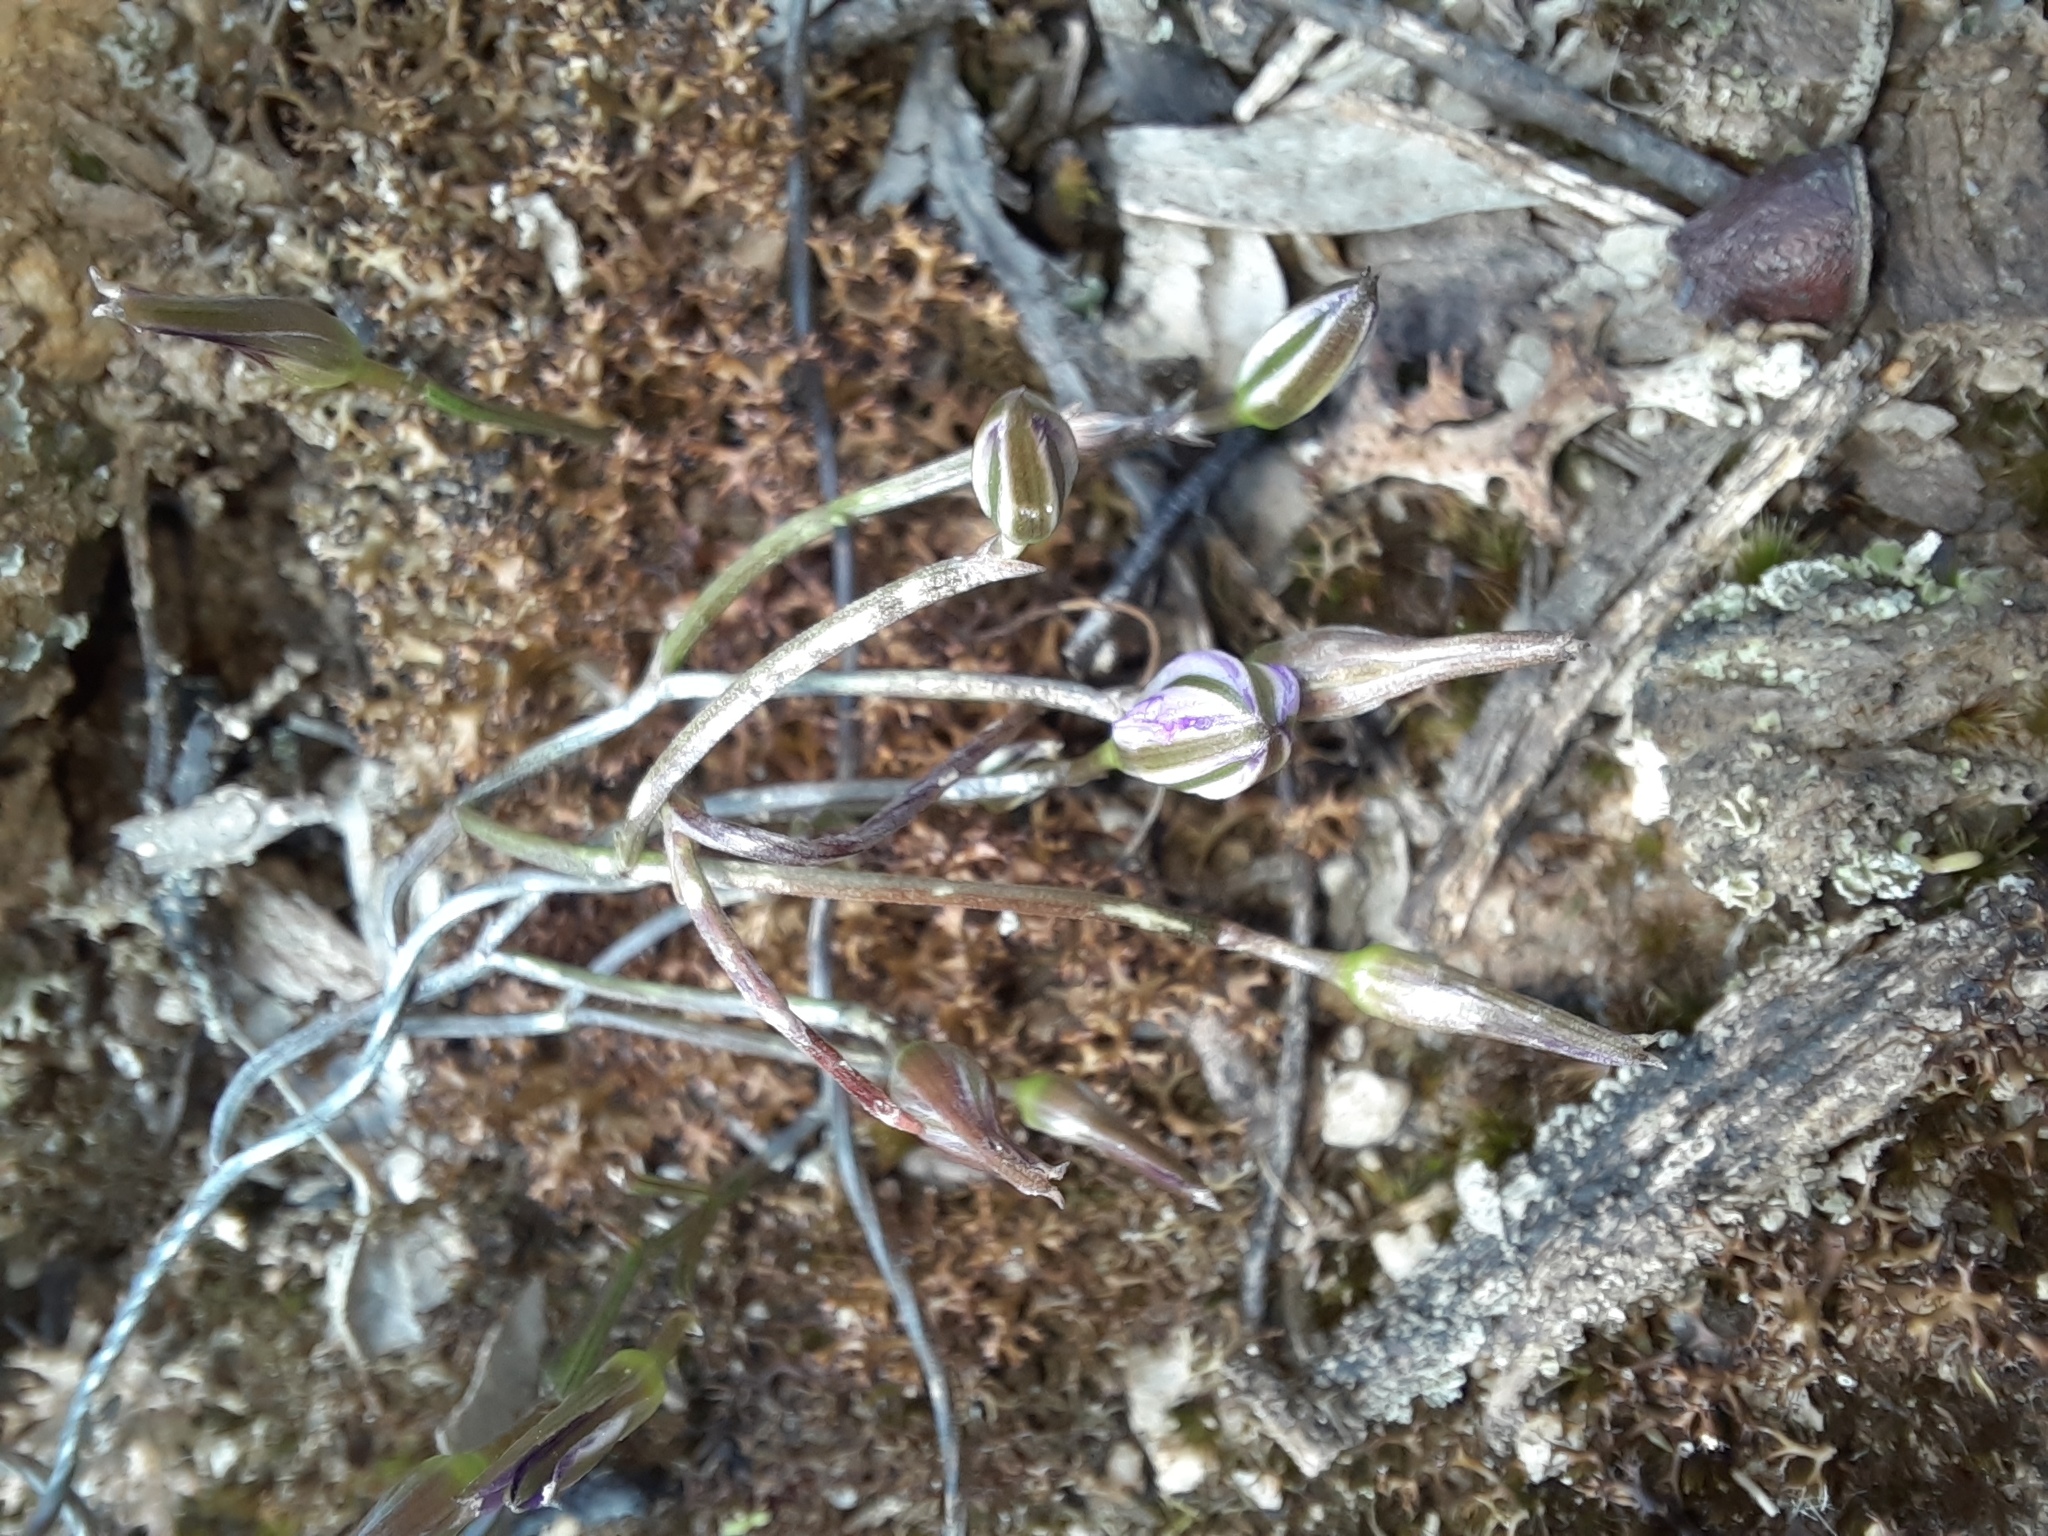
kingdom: Plantae
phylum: Tracheophyta
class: Liliopsida
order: Asparagales
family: Asparagaceae
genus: Thysanotus
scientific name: Thysanotus patersonii
